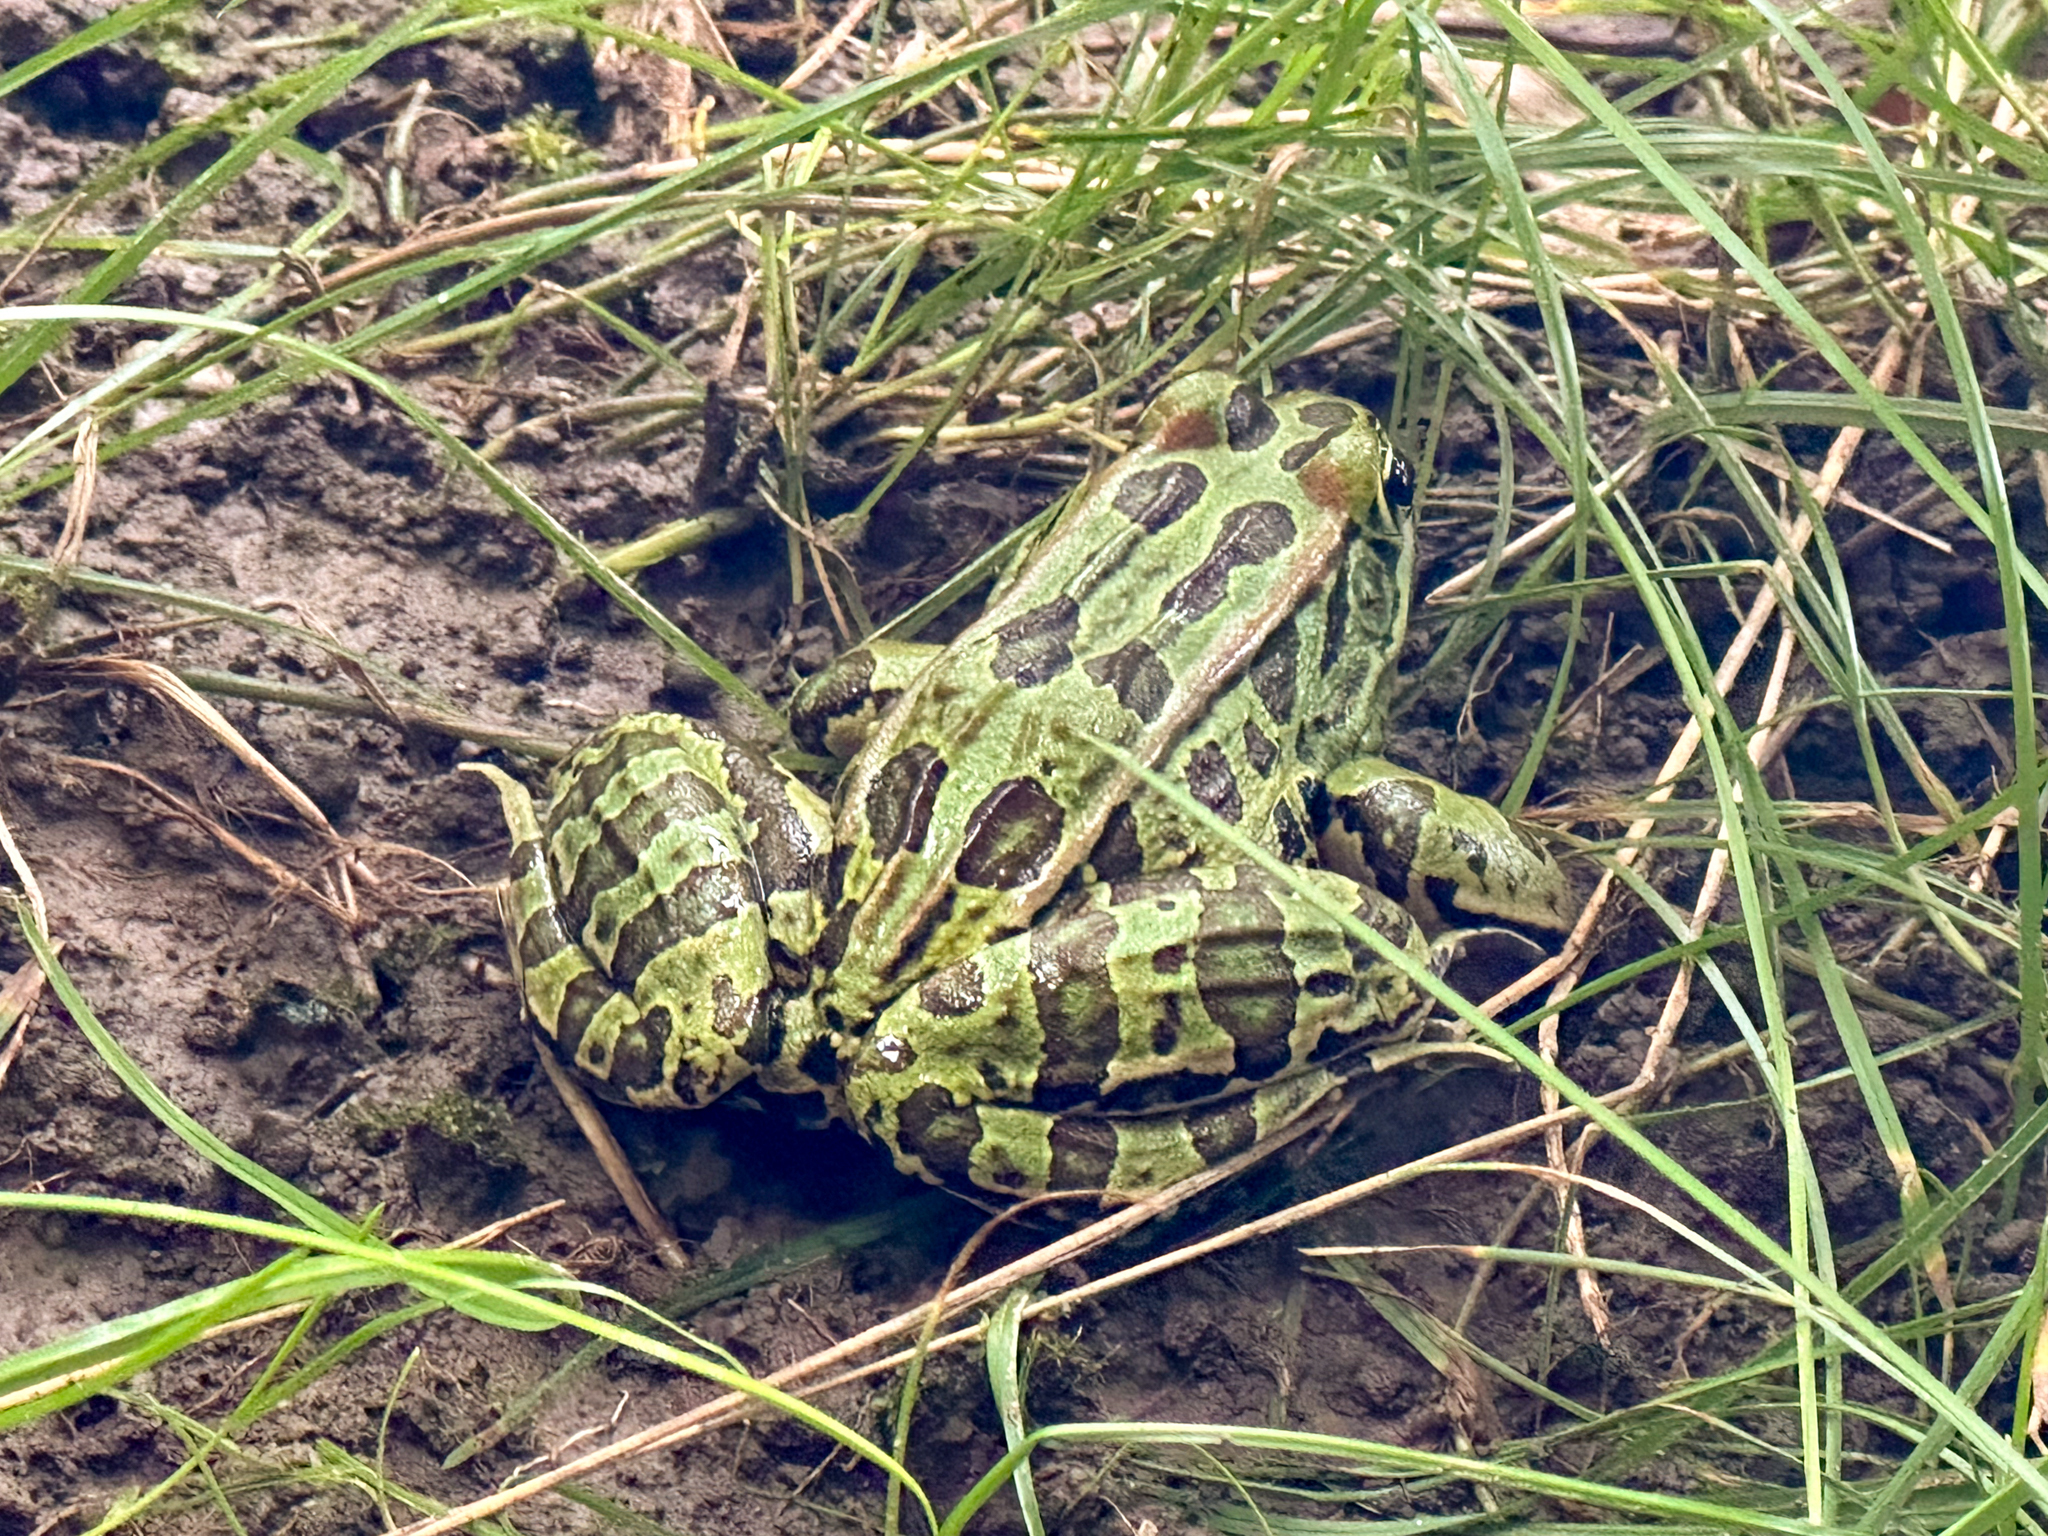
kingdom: Animalia
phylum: Chordata
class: Amphibia
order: Anura
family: Ranidae
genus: Lithobates
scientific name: Lithobates pipiens
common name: Northern leopard frog
